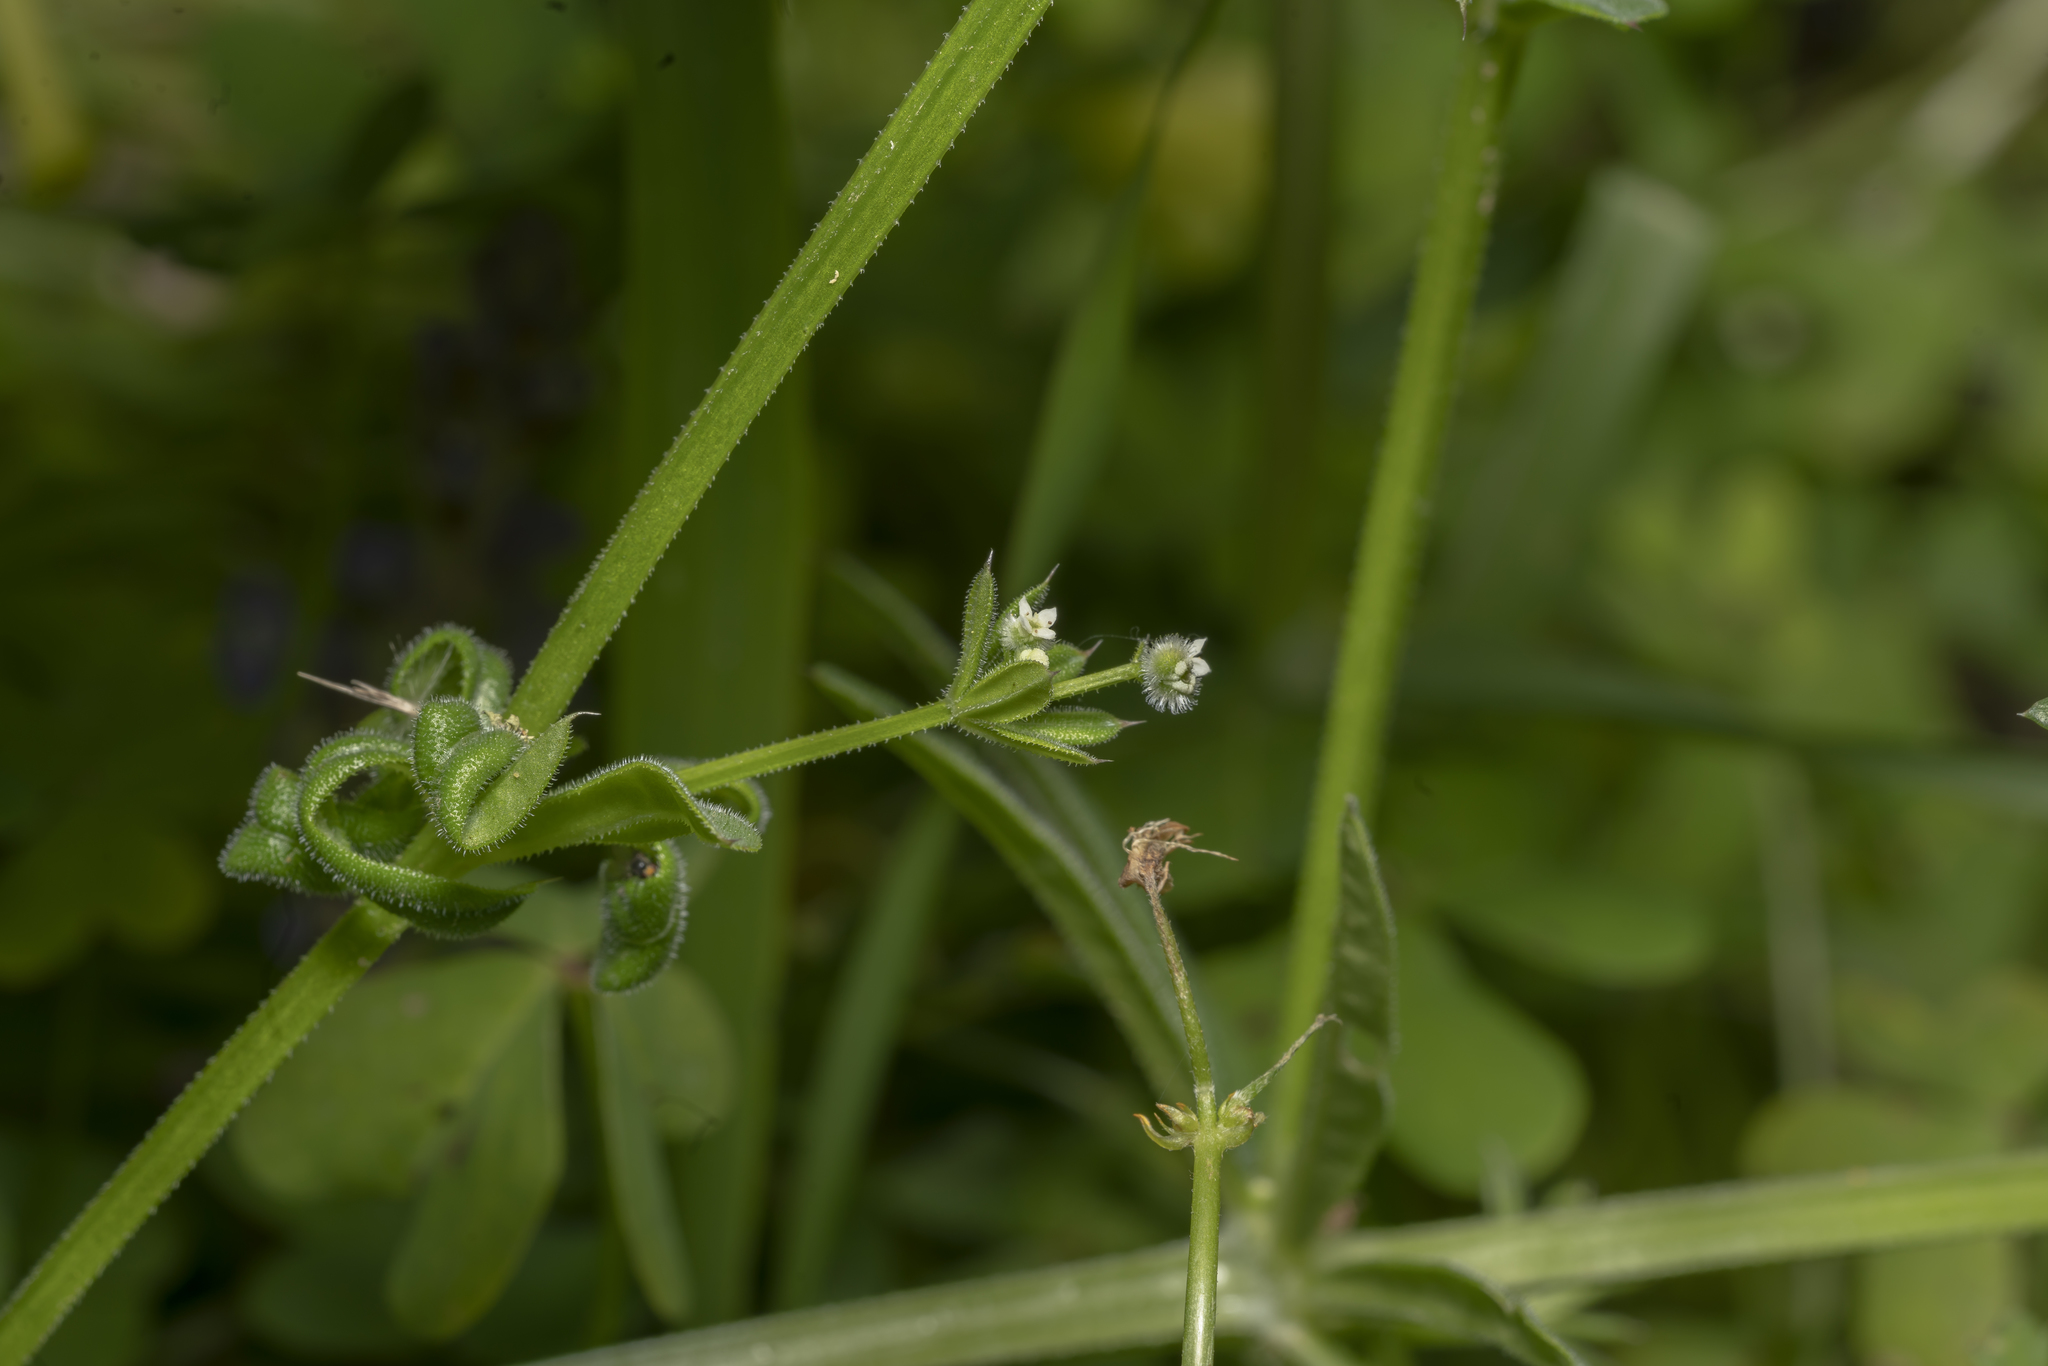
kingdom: Plantae
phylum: Tracheophyta
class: Magnoliopsida
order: Gentianales
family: Rubiaceae
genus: Galium
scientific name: Galium aparine
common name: Cleavers
